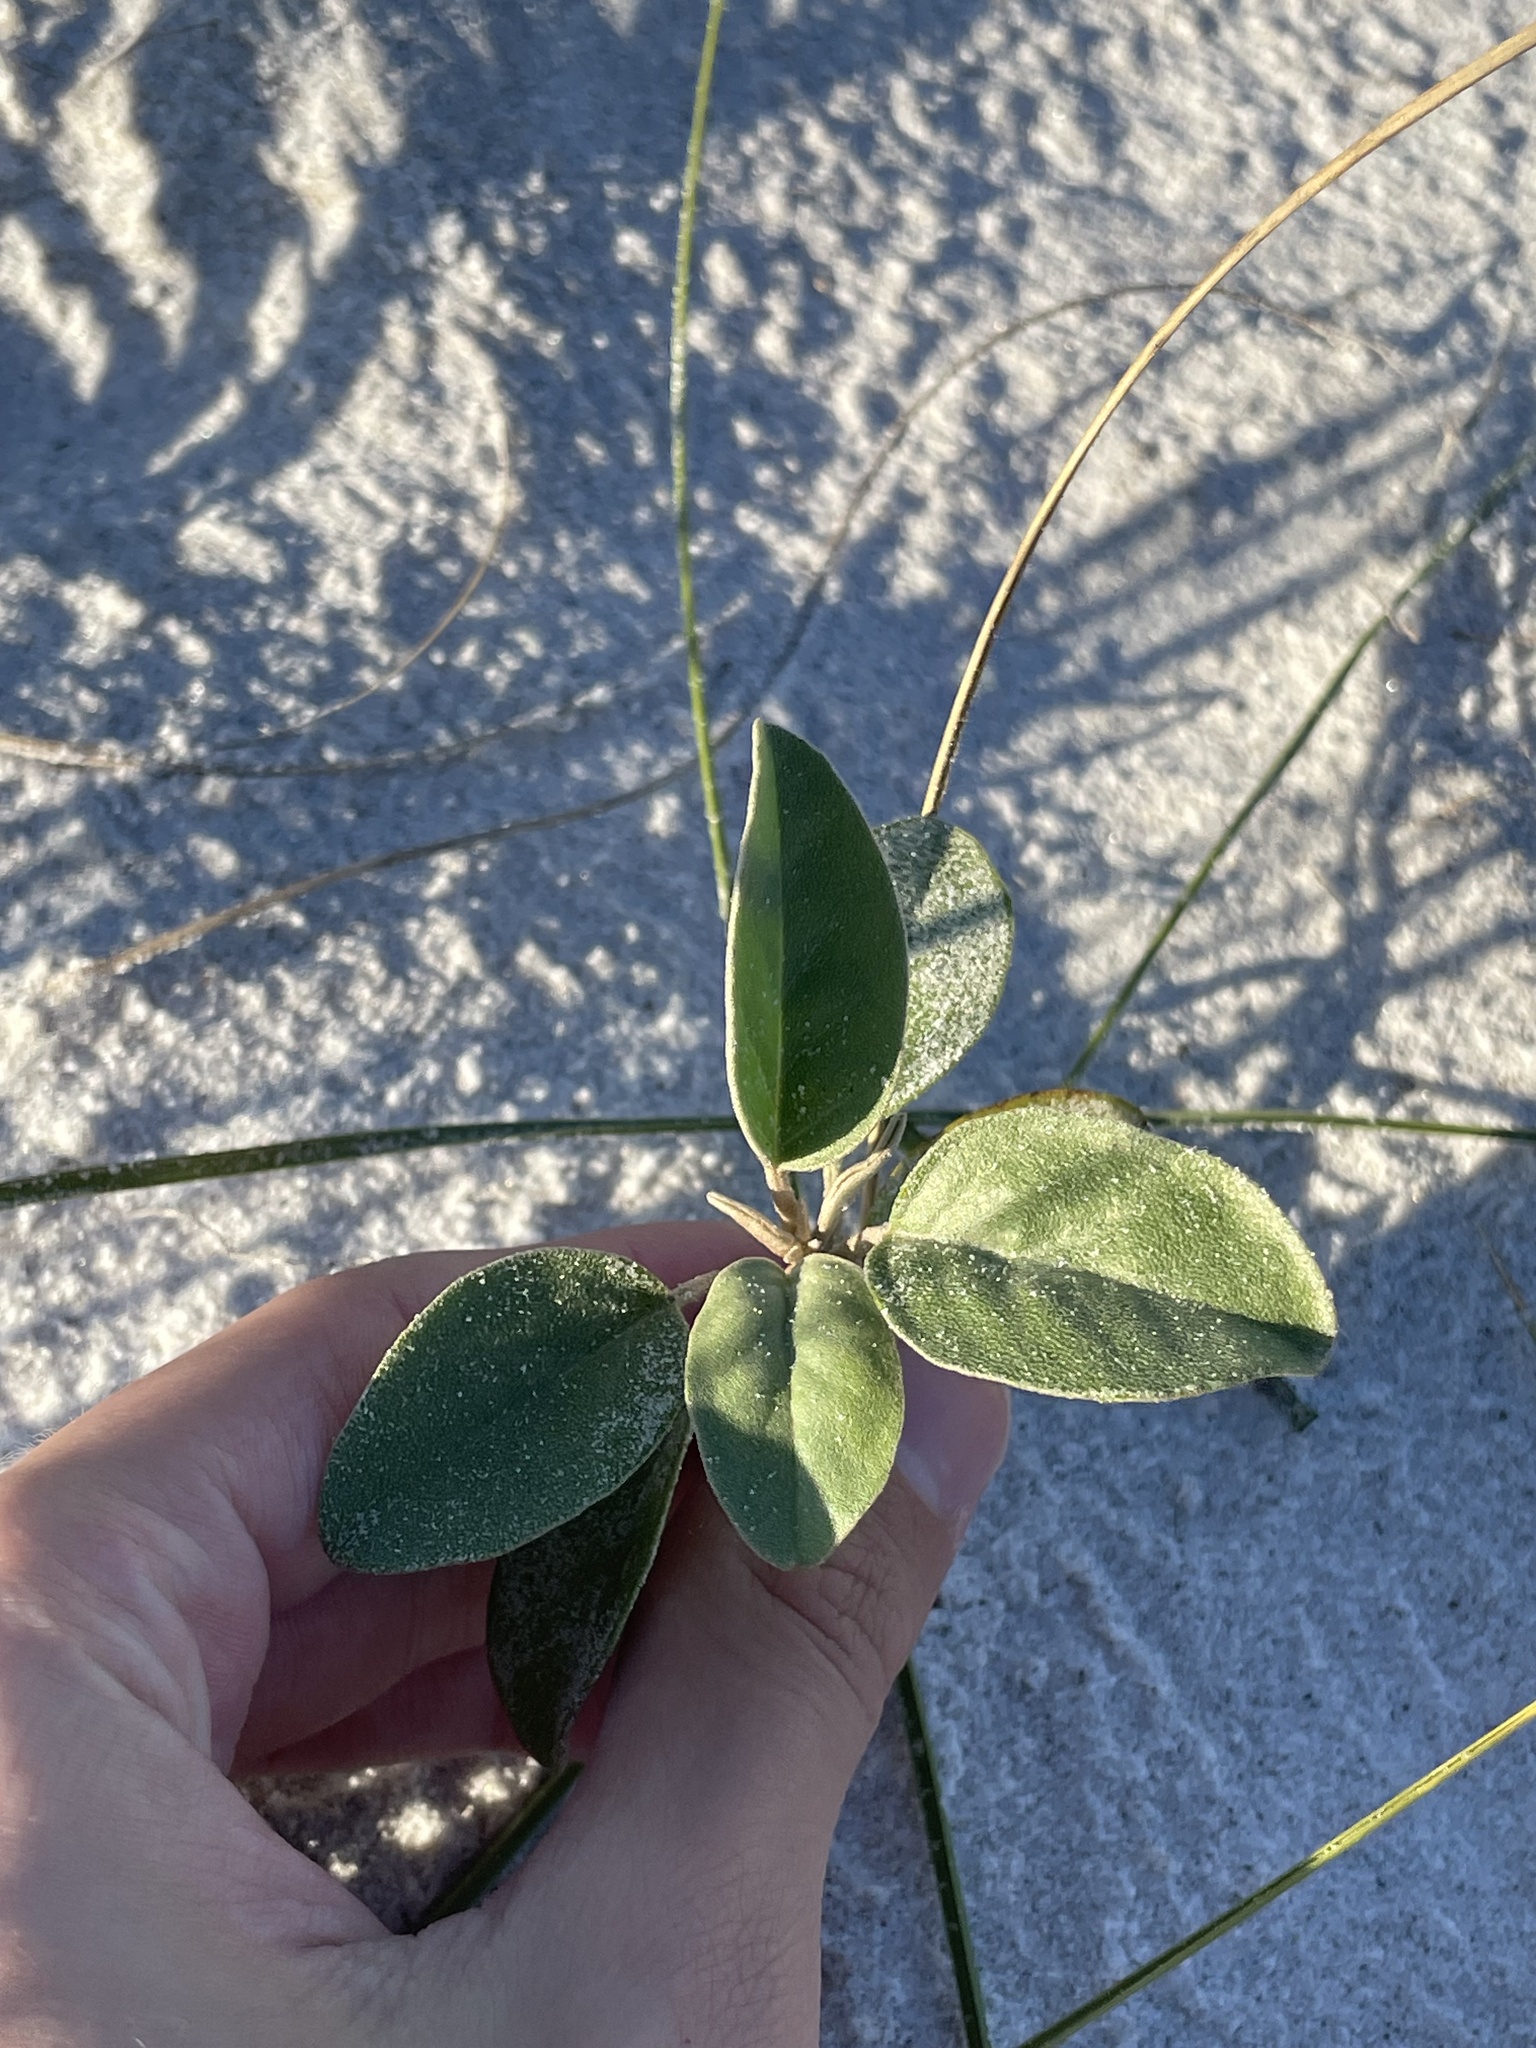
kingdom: Plantae
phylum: Tracheophyta
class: Magnoliopsida
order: Malpighiales
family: Euphorbiaceae
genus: Croton
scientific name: Croton punctatus
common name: Beach-tea
